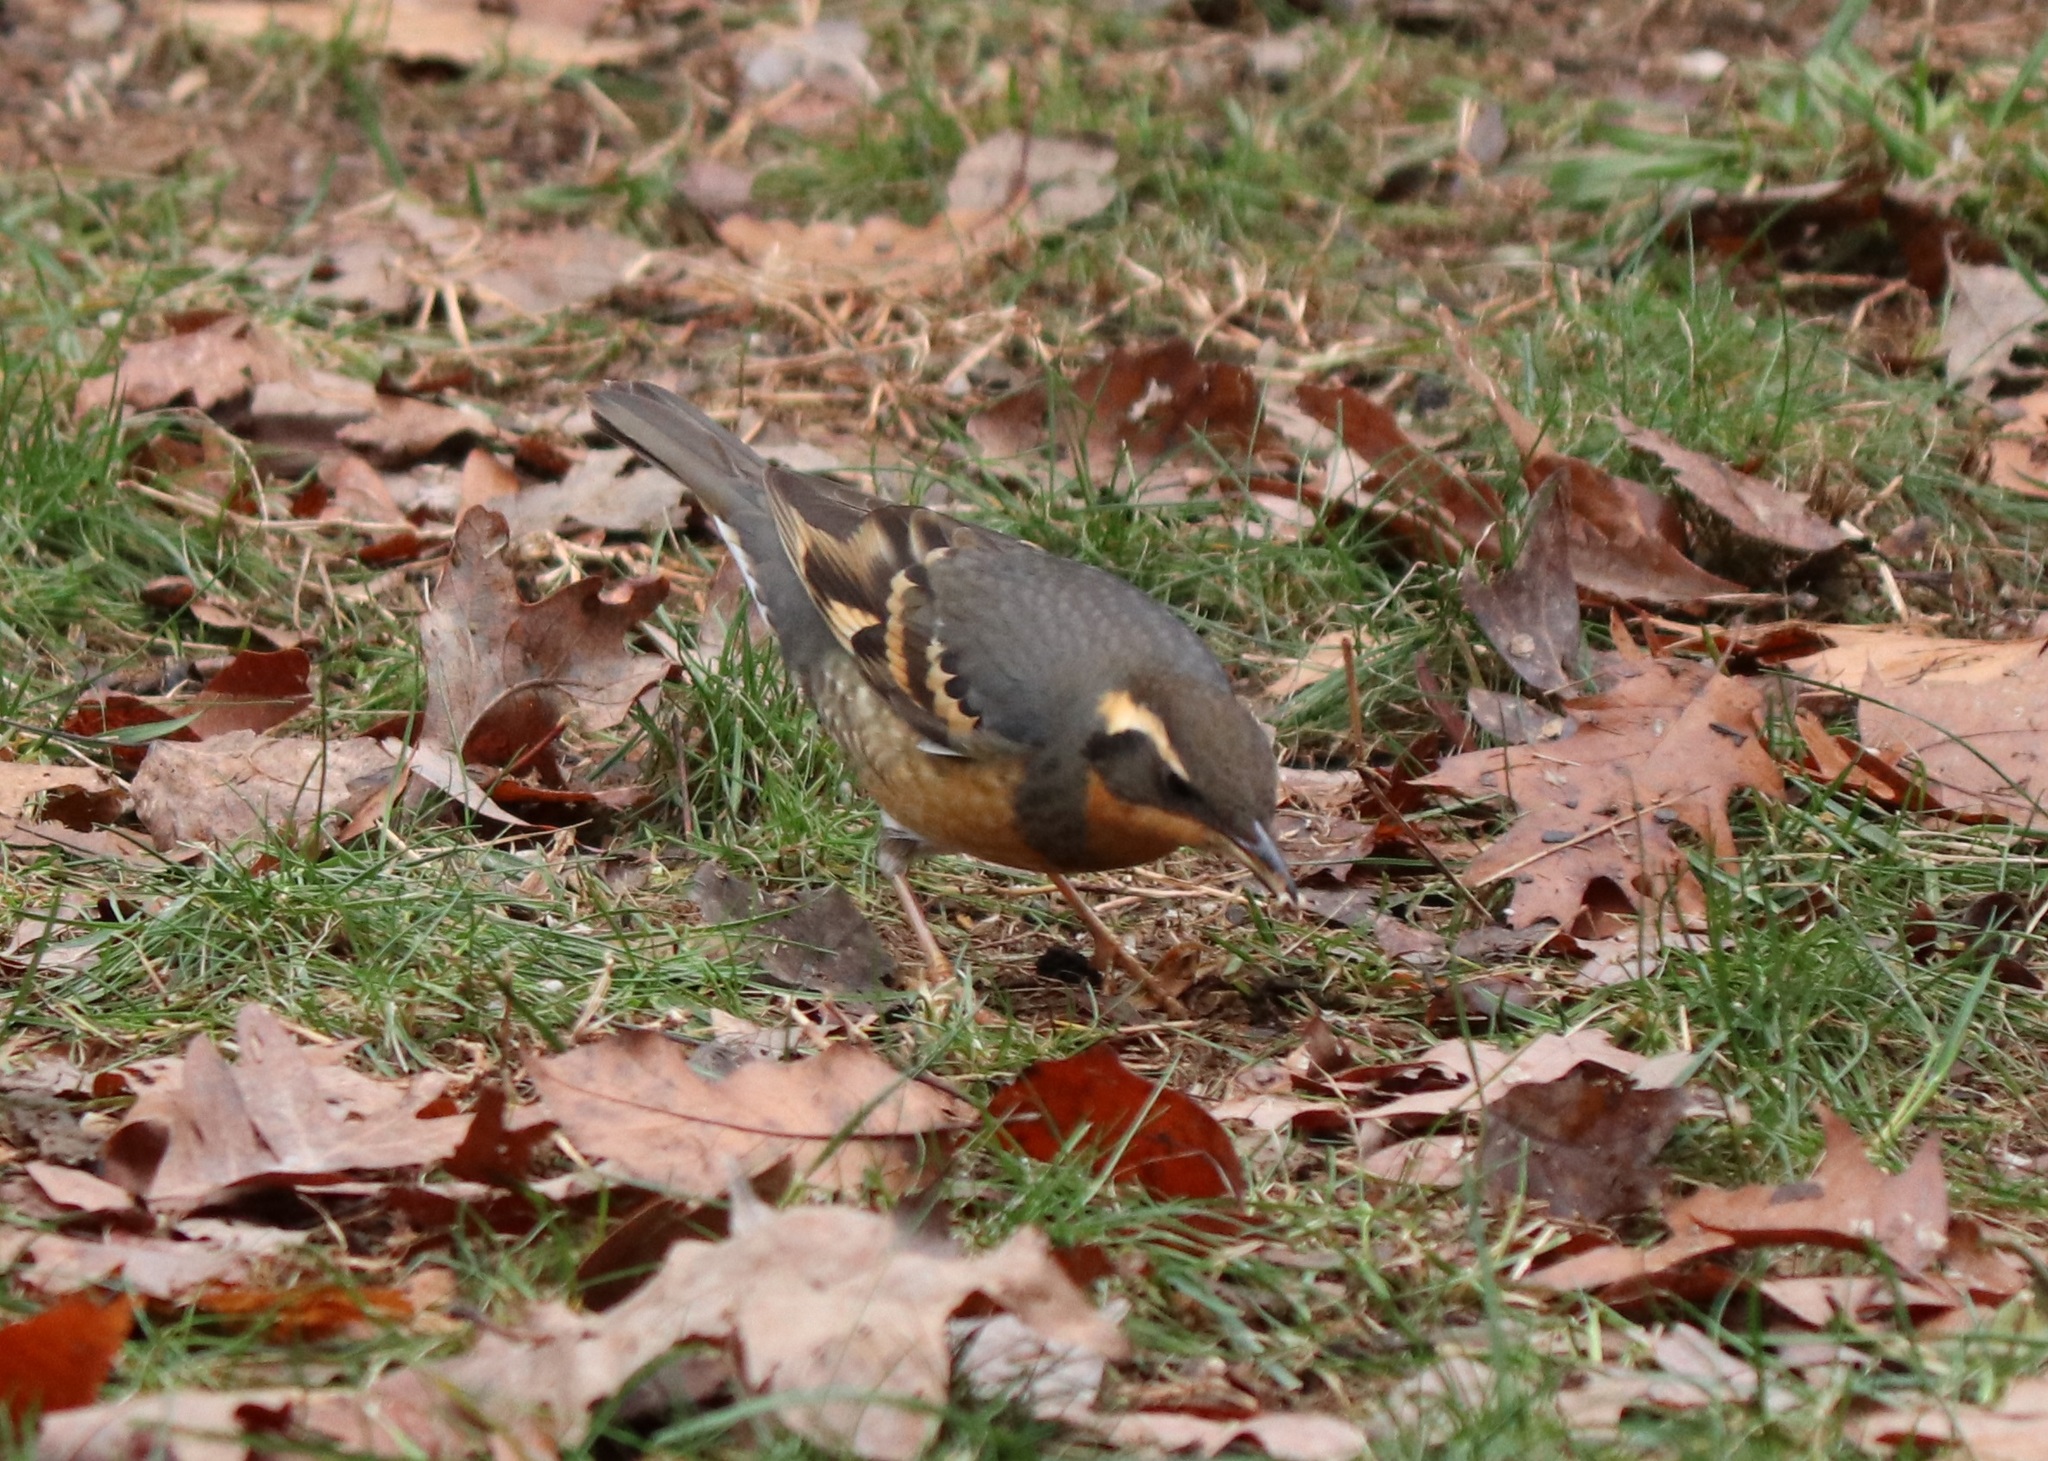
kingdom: Animalia
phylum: Chordata
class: Aves
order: Passeriformes
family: Turdidae
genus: Ixoreus
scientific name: Ixoreus naevius
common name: Varied thrush
